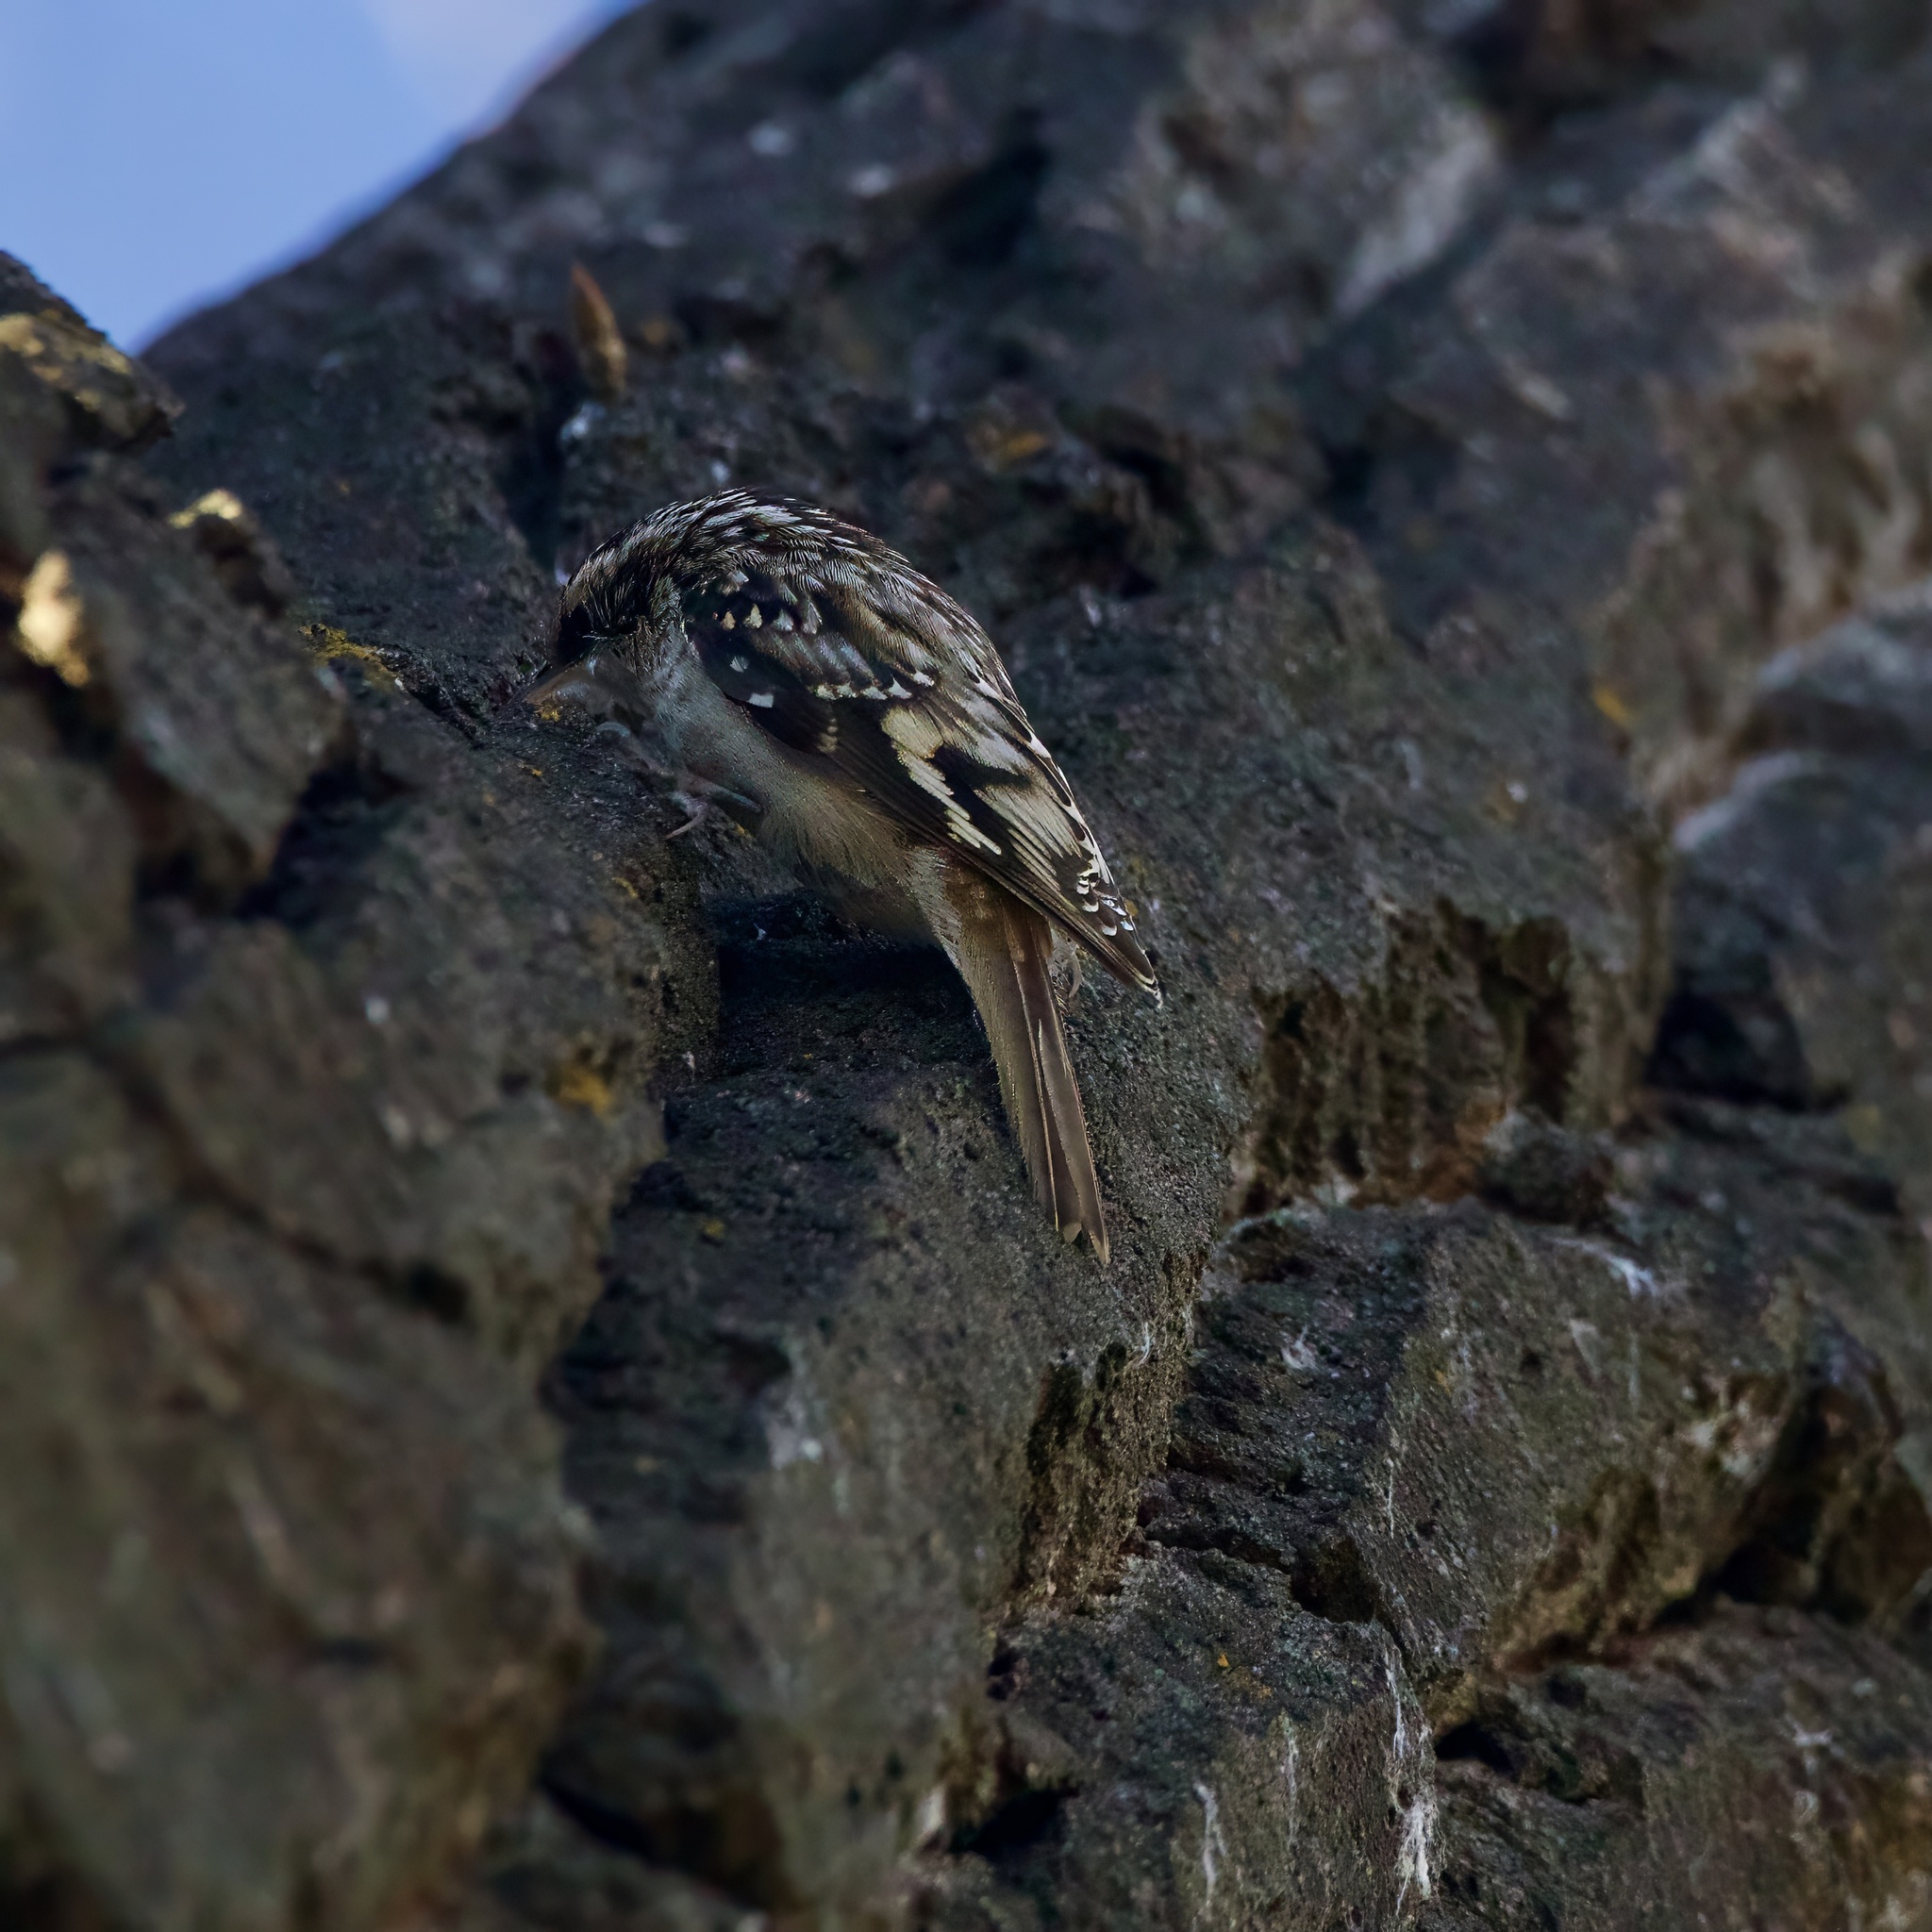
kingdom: Animalia
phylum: Chordata
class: Aves
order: Passeriformes
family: Certhiidae
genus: Certhia
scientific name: Certhia americana
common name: Brown creeper
